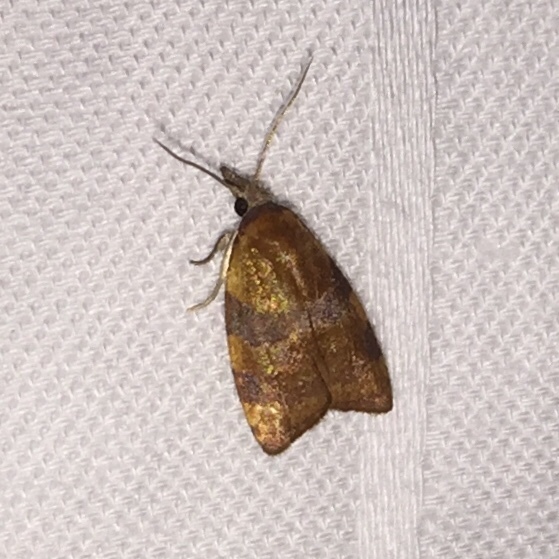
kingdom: Animalia
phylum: Arthropoda
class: Insecta
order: Lepidoptera
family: Tortricidae
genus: Cenopis
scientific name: Cenopis diluticostana
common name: Spring dead-leaf roller moth
